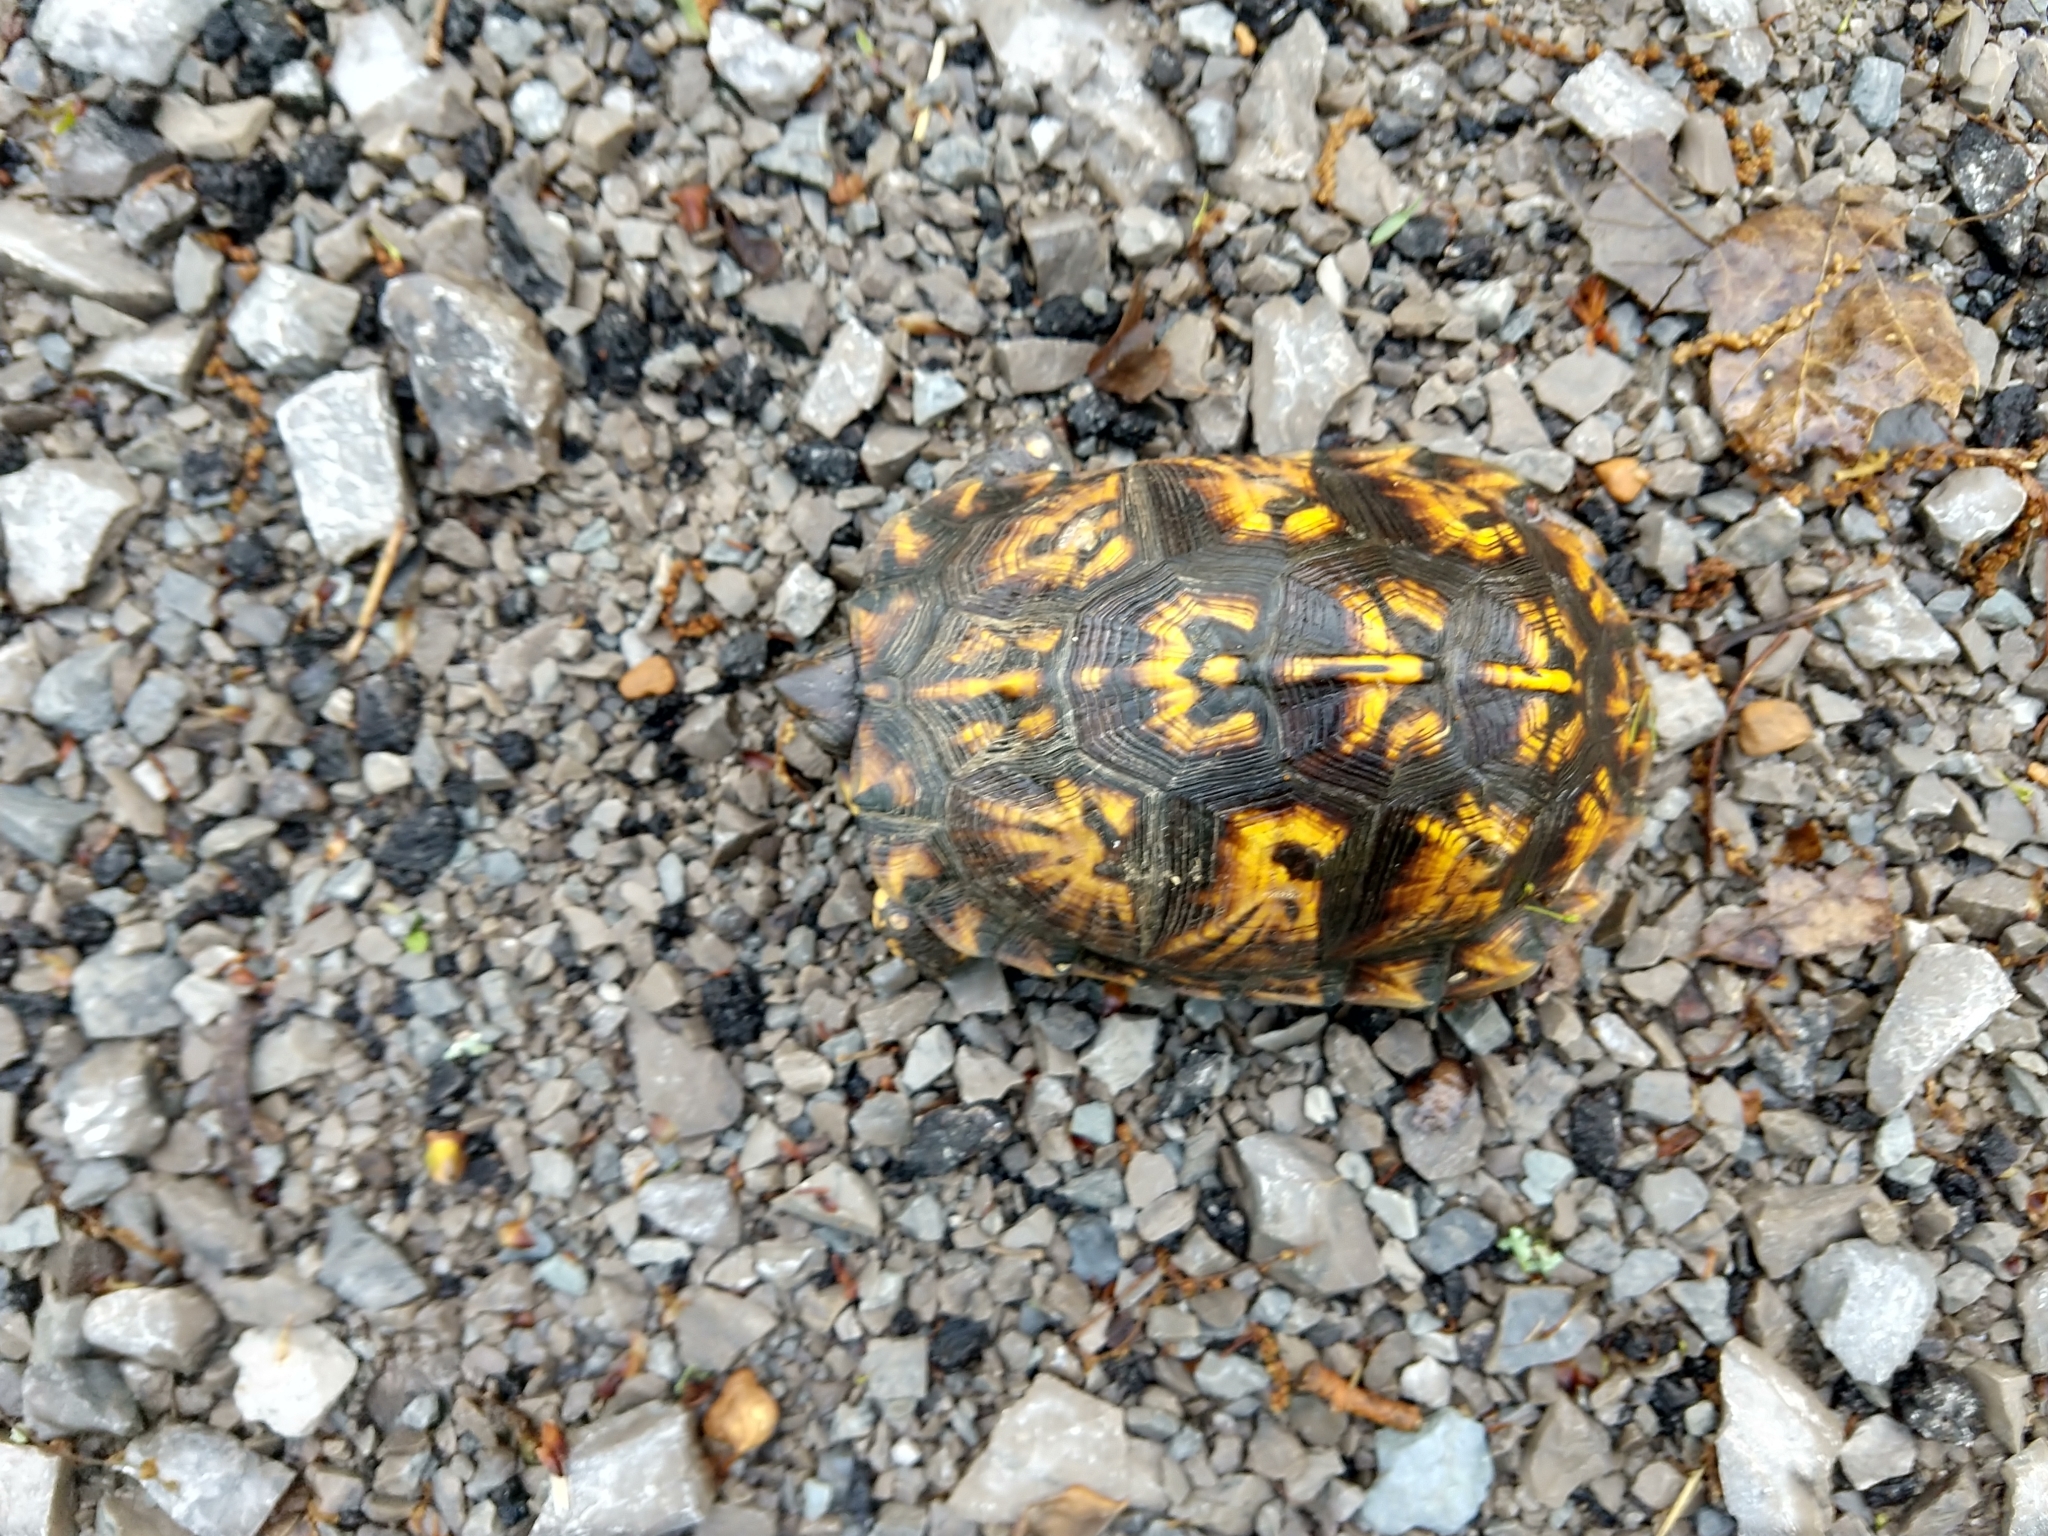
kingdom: Animalia
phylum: Chordata
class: Testudines
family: Emydidae
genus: Terrapene
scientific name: Terrapene carolina
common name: Common box turtle
